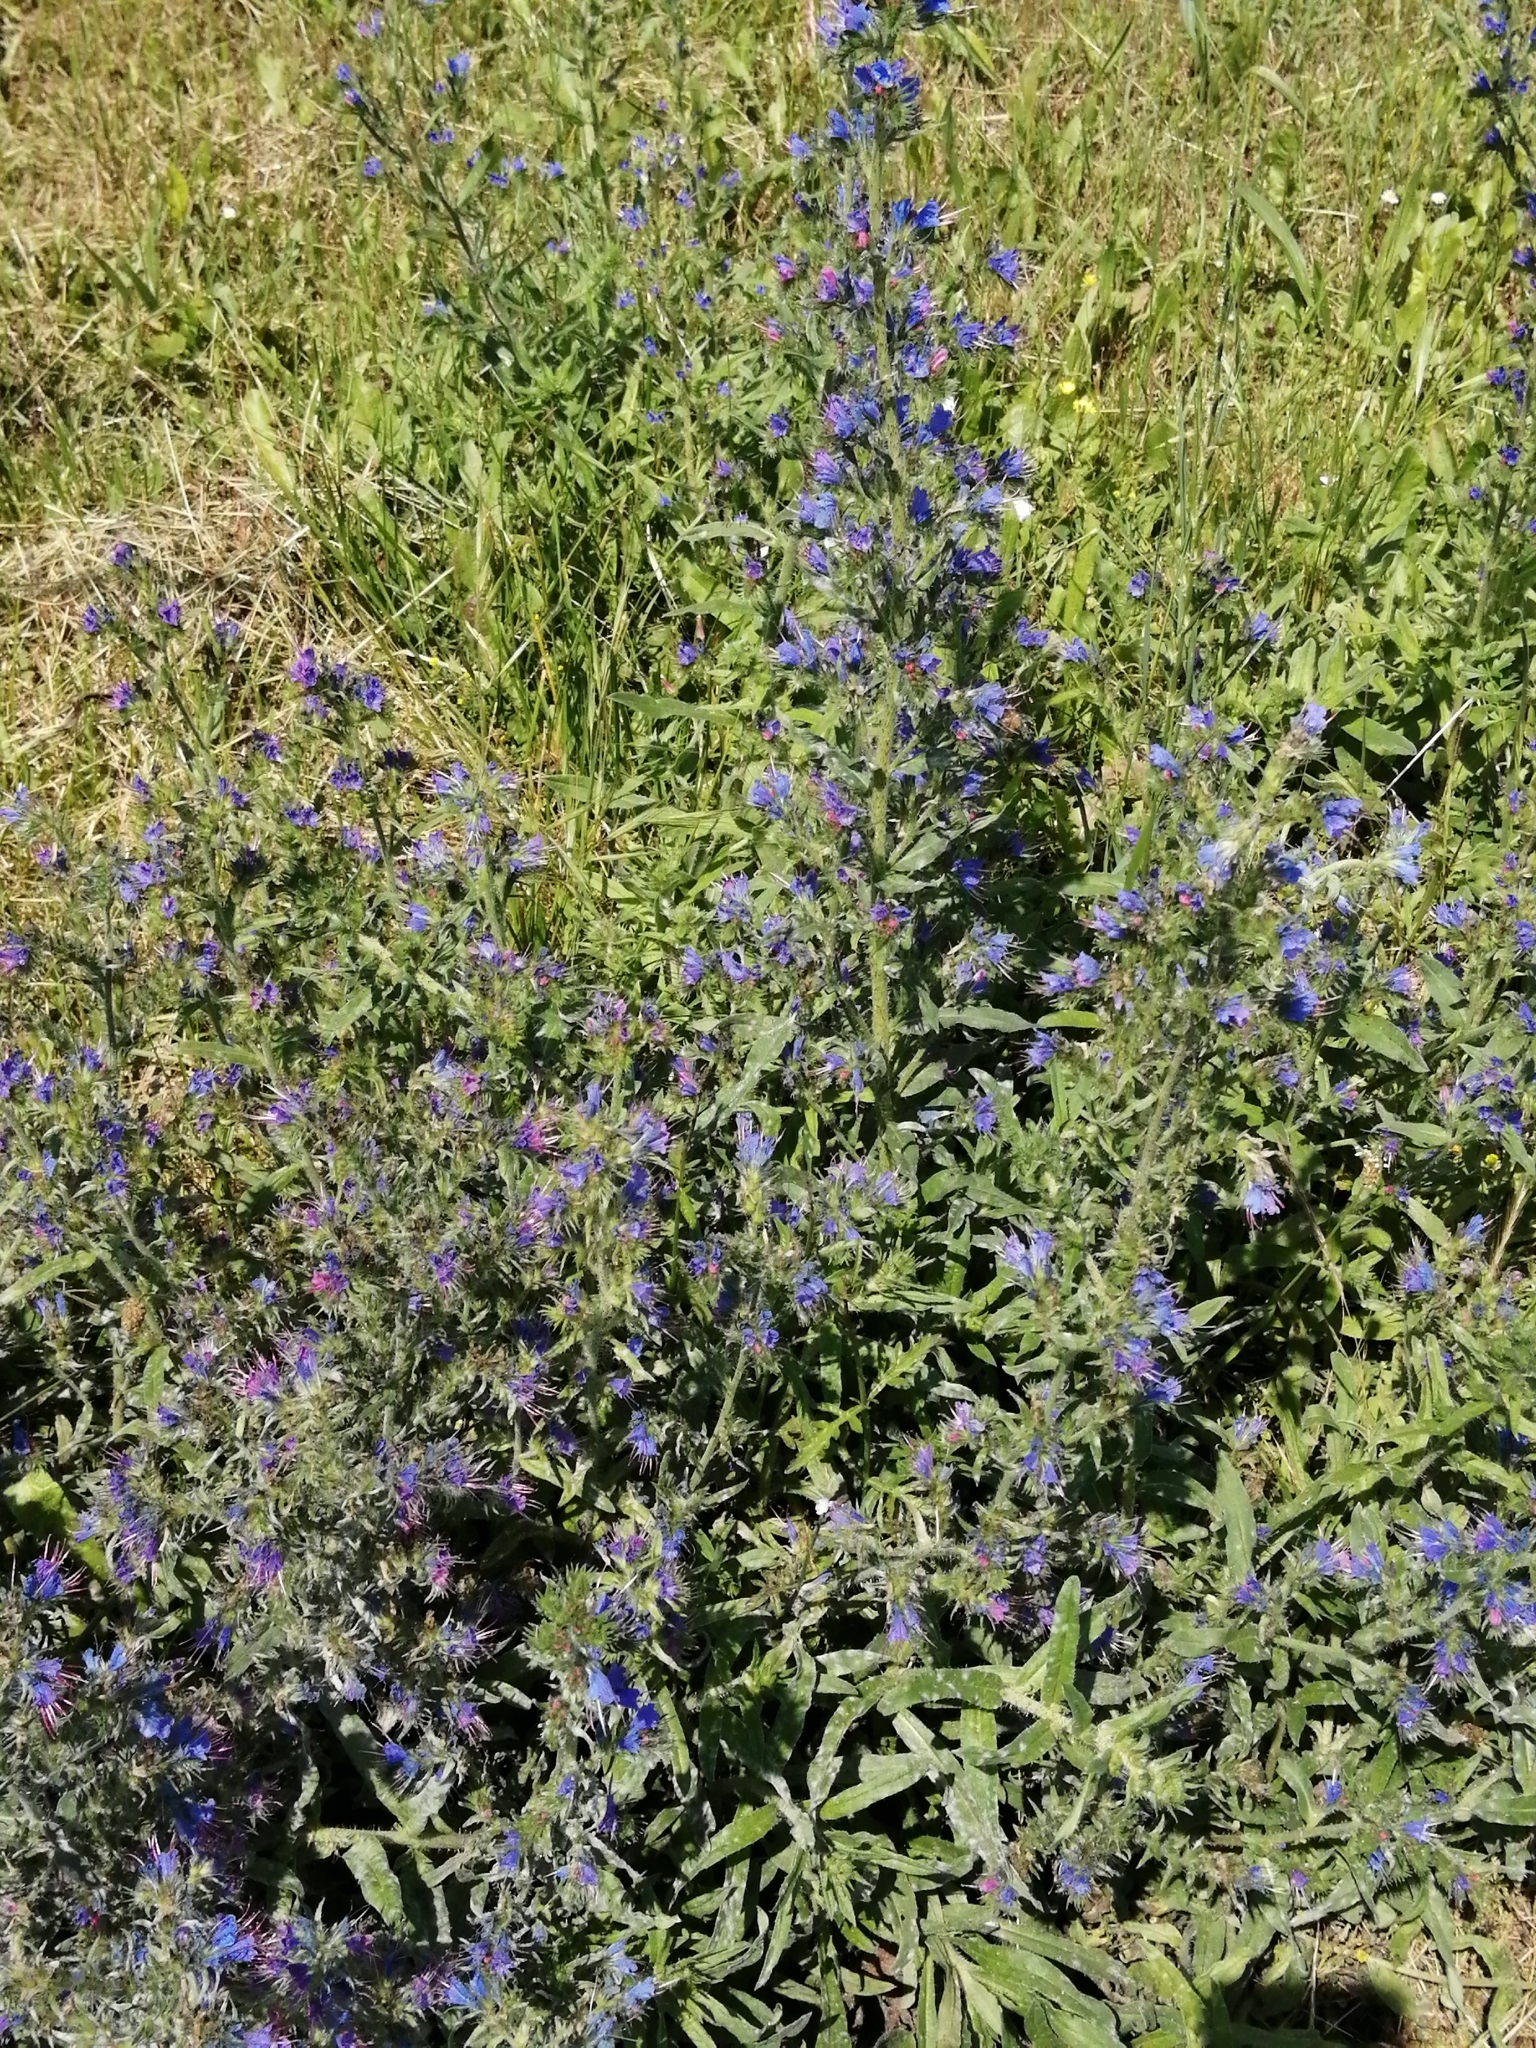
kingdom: Plantae
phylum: Tracheophyta
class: Magnoliopsida
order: Boraginales
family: Boraginaceae
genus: Echium
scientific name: Echium vulgare
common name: Common viper's bugloss
